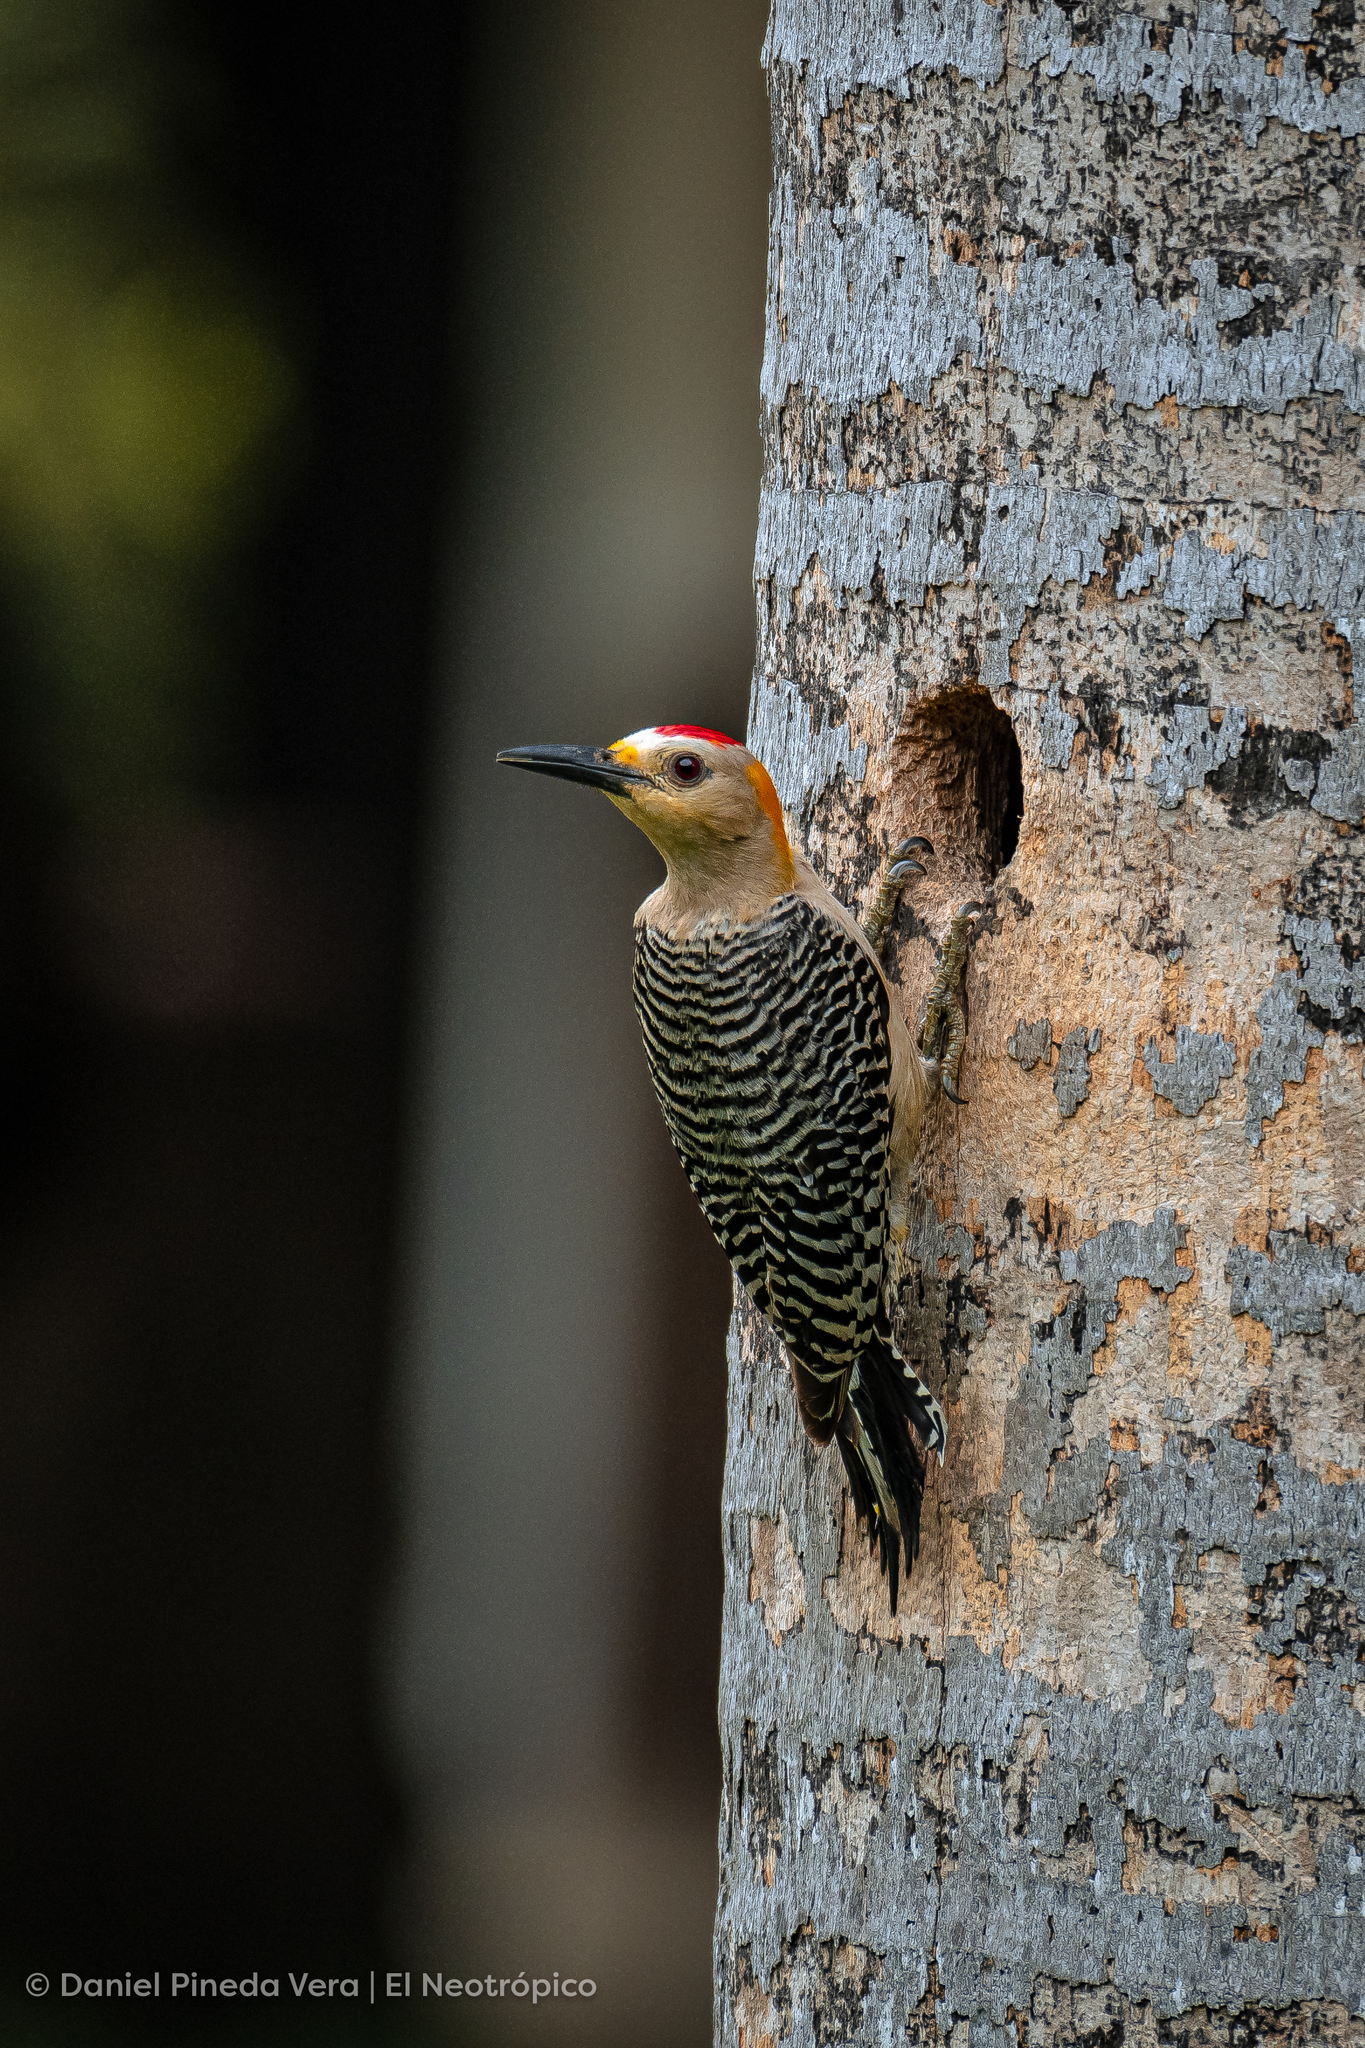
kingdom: Animalia
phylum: Chordata
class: Aves
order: Piciformes
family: Picidae
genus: Melanerpes
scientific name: Melanerpes aurifrons
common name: Golden-fronted woodpecker
